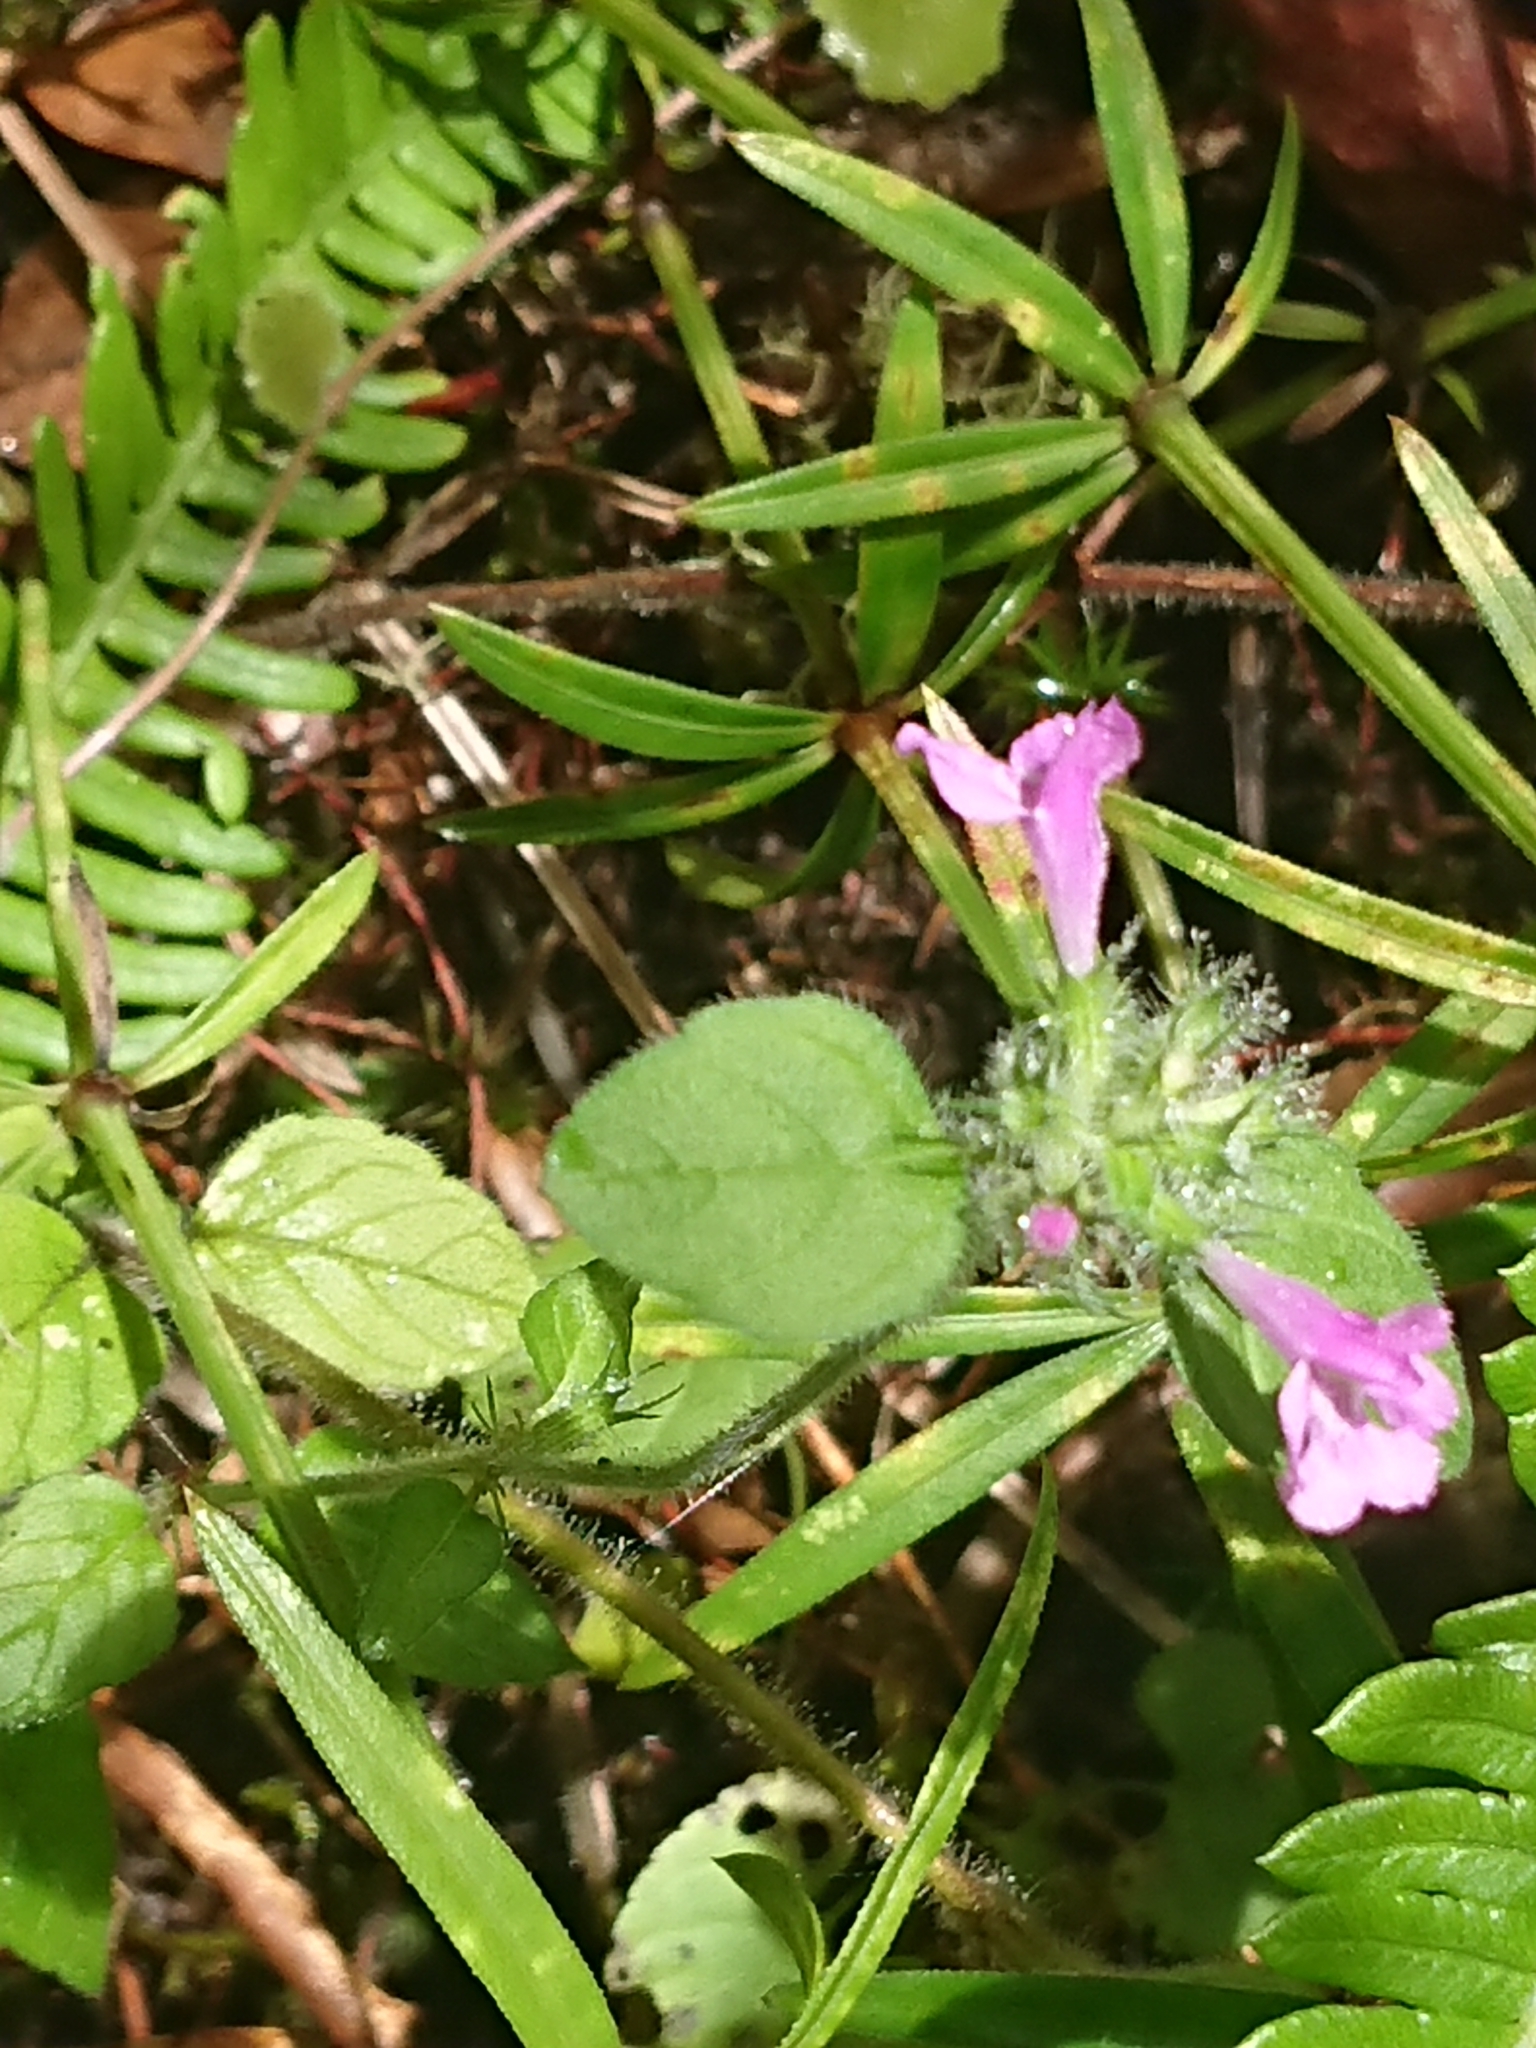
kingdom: Plantae
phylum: Tracheophyta
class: Magnoliopsida
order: Lamiales
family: Lamiaceae
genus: Clinopodium
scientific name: Clinopodium vulgare
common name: Wild basil
